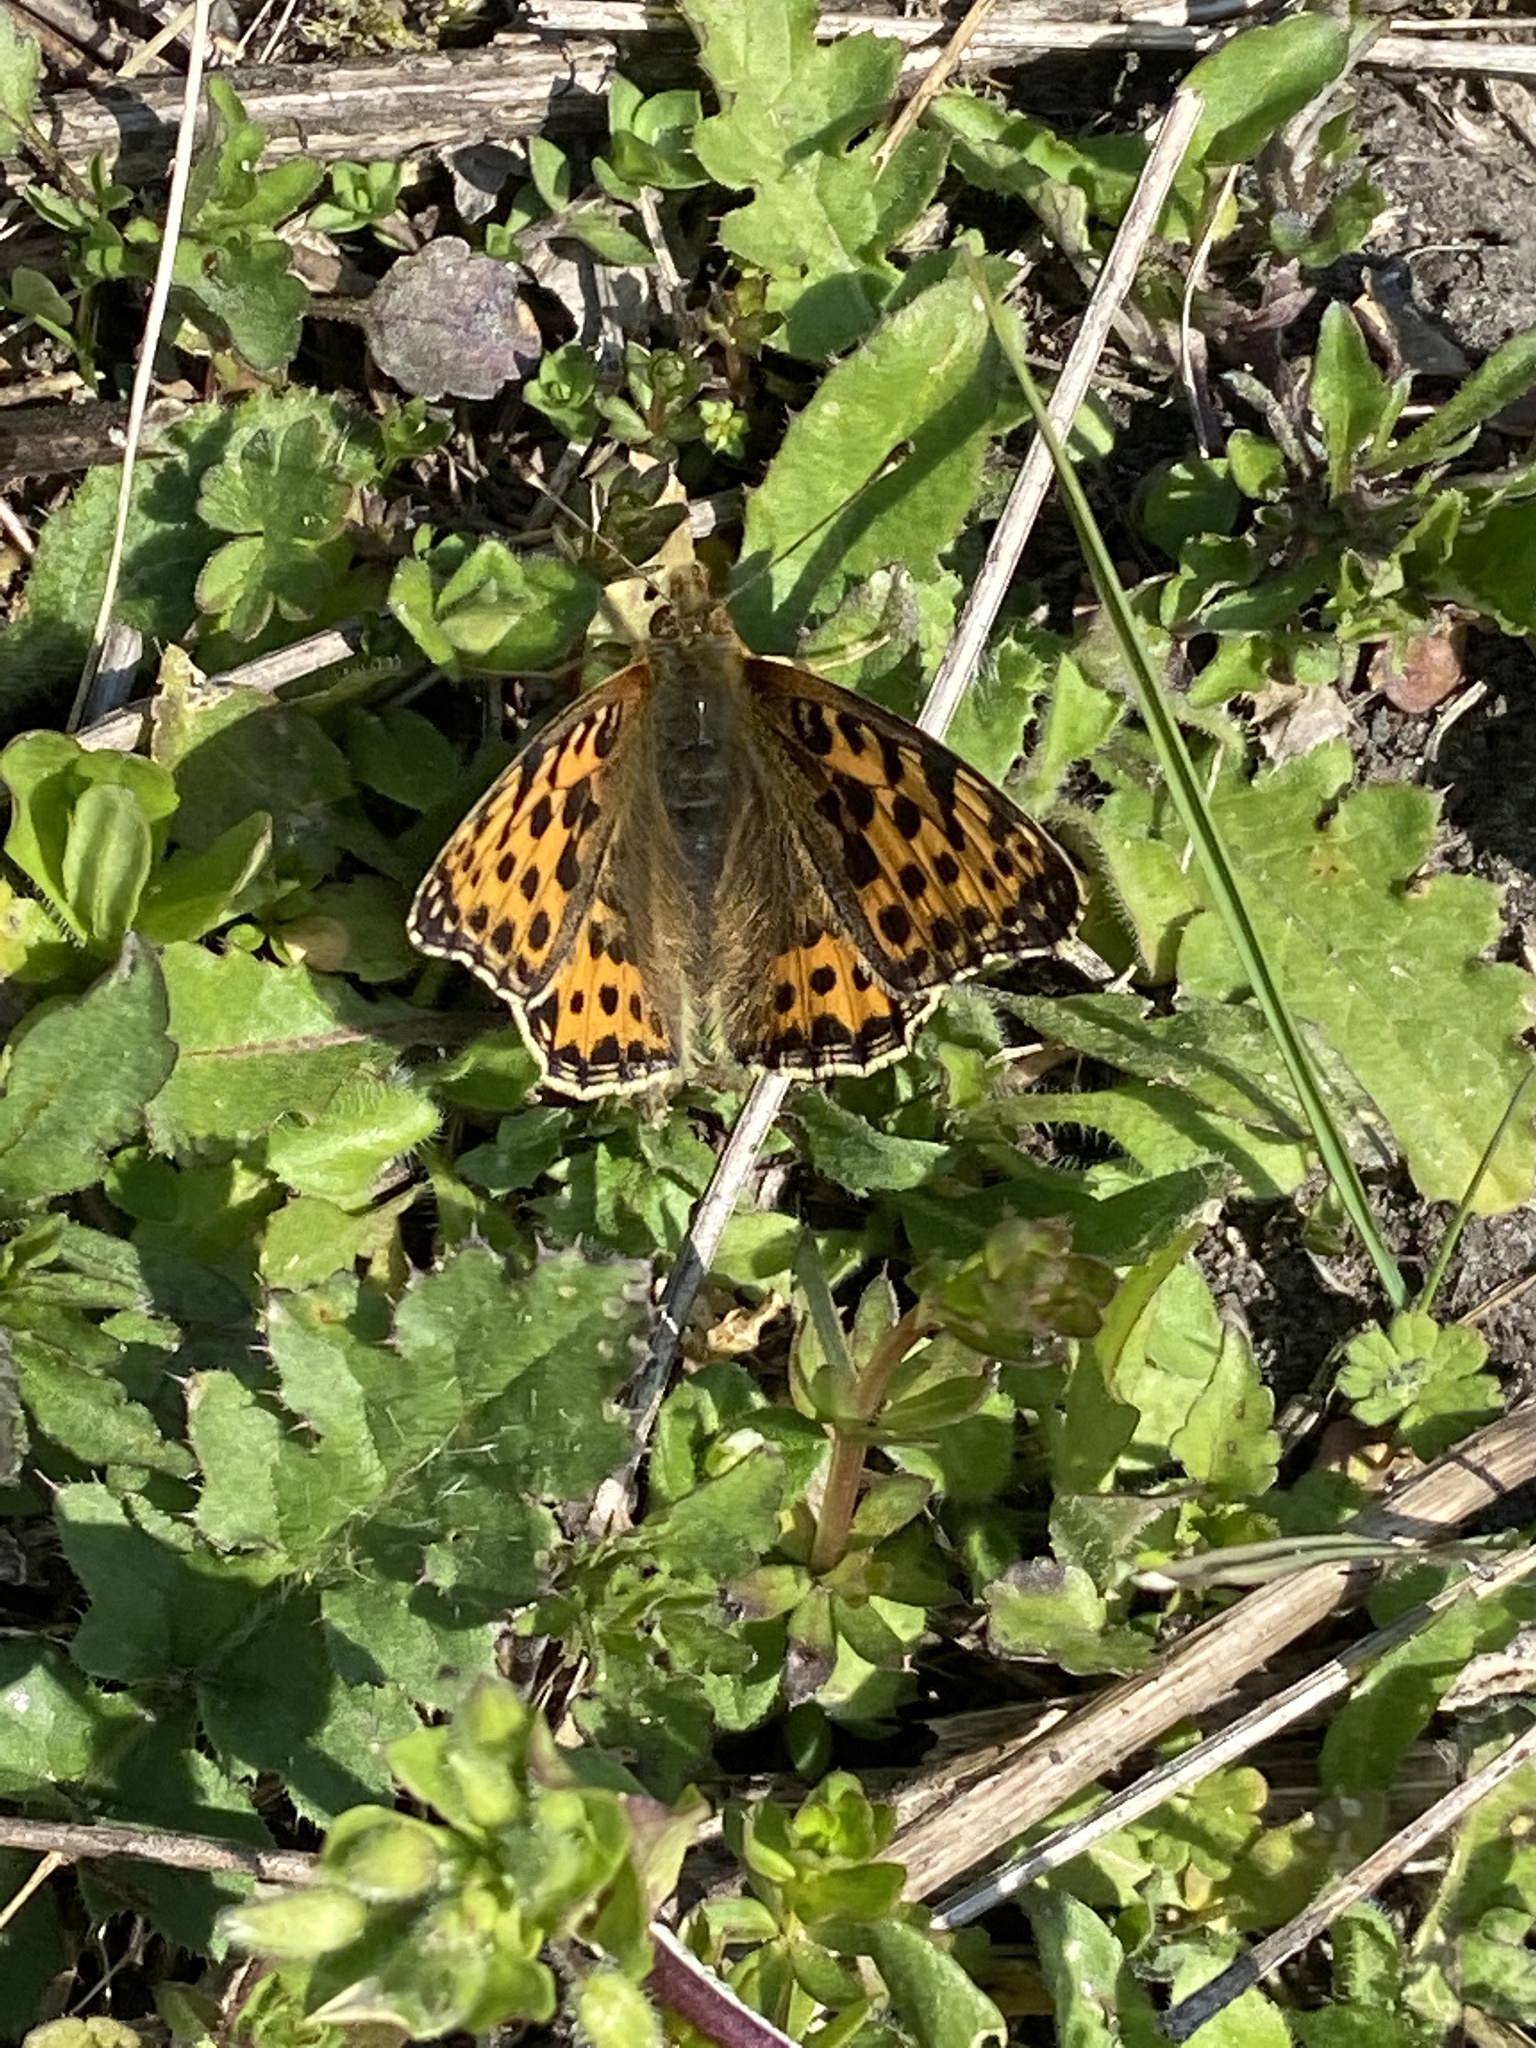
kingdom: Animalia
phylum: Arthropoda
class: Insecta
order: Lepidoptera
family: Nymphalidae
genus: Issoria
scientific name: Issoria lathonia
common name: Queen of spain fritillary
